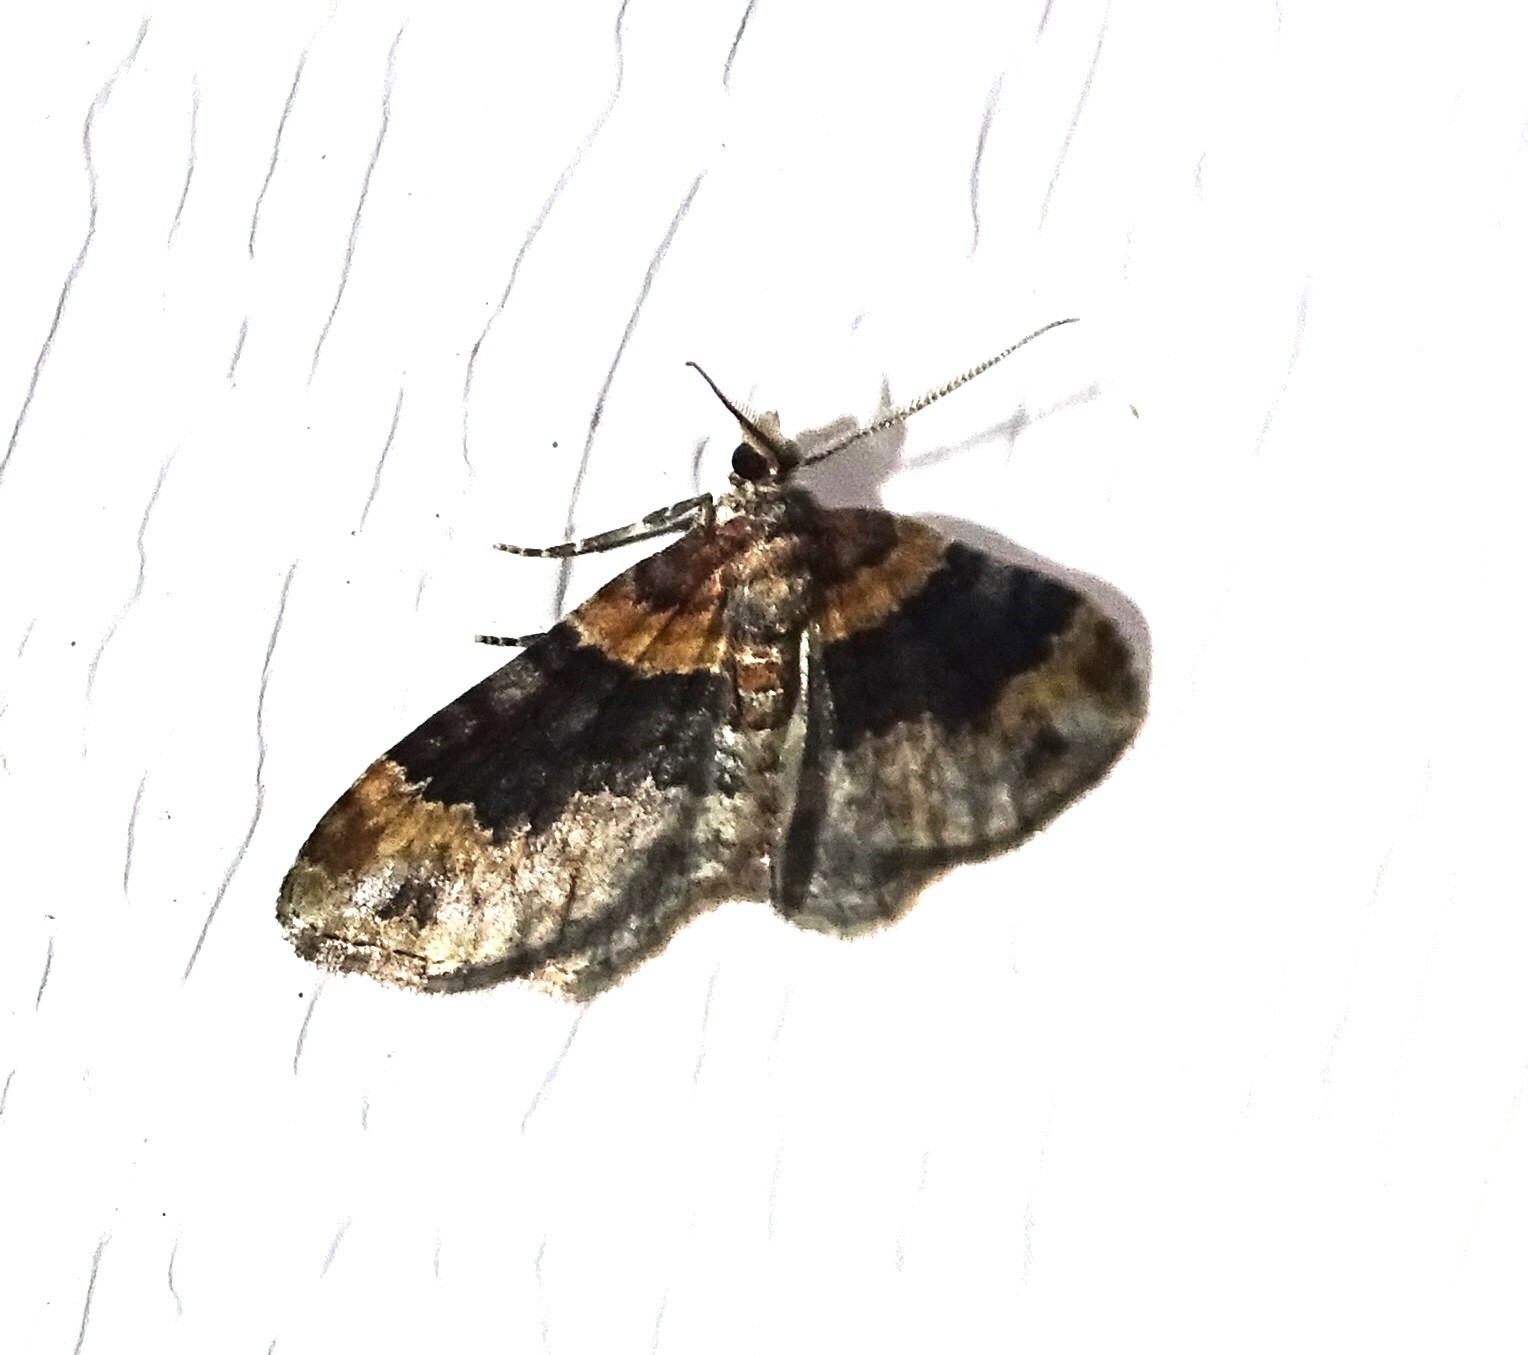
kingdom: Animalia
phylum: Arthropoda
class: Insecta
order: Lepidoptera
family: Geometridae
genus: Xanthorhoe
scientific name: Xanthorhoe ferrugata
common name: Dark-barred twin-spot carpet
